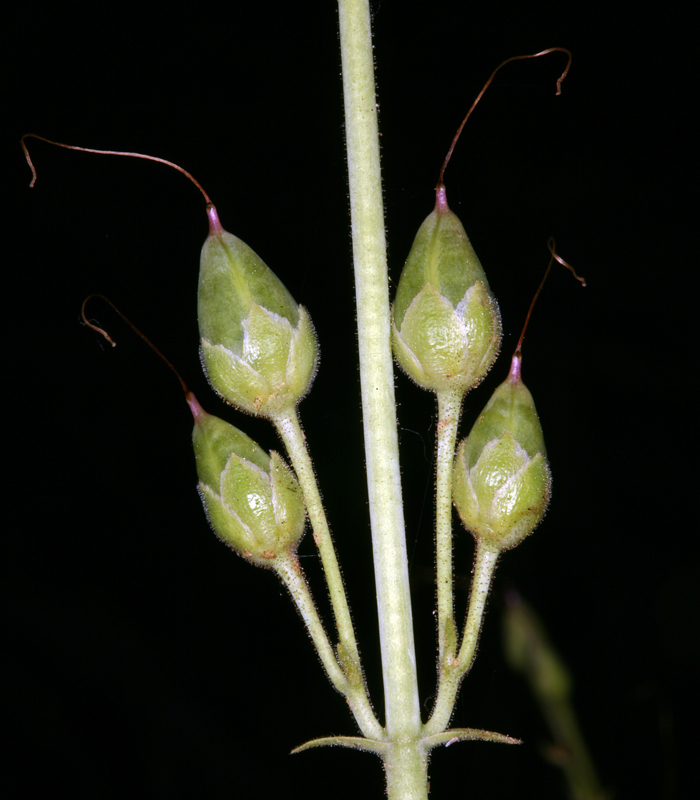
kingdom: Plantae
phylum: Tracheophyta
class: Magnoliopsida
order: Lamiales
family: Plantaginaceae
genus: Penstemon
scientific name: Penstemon floridus
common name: Panamint penstemon
